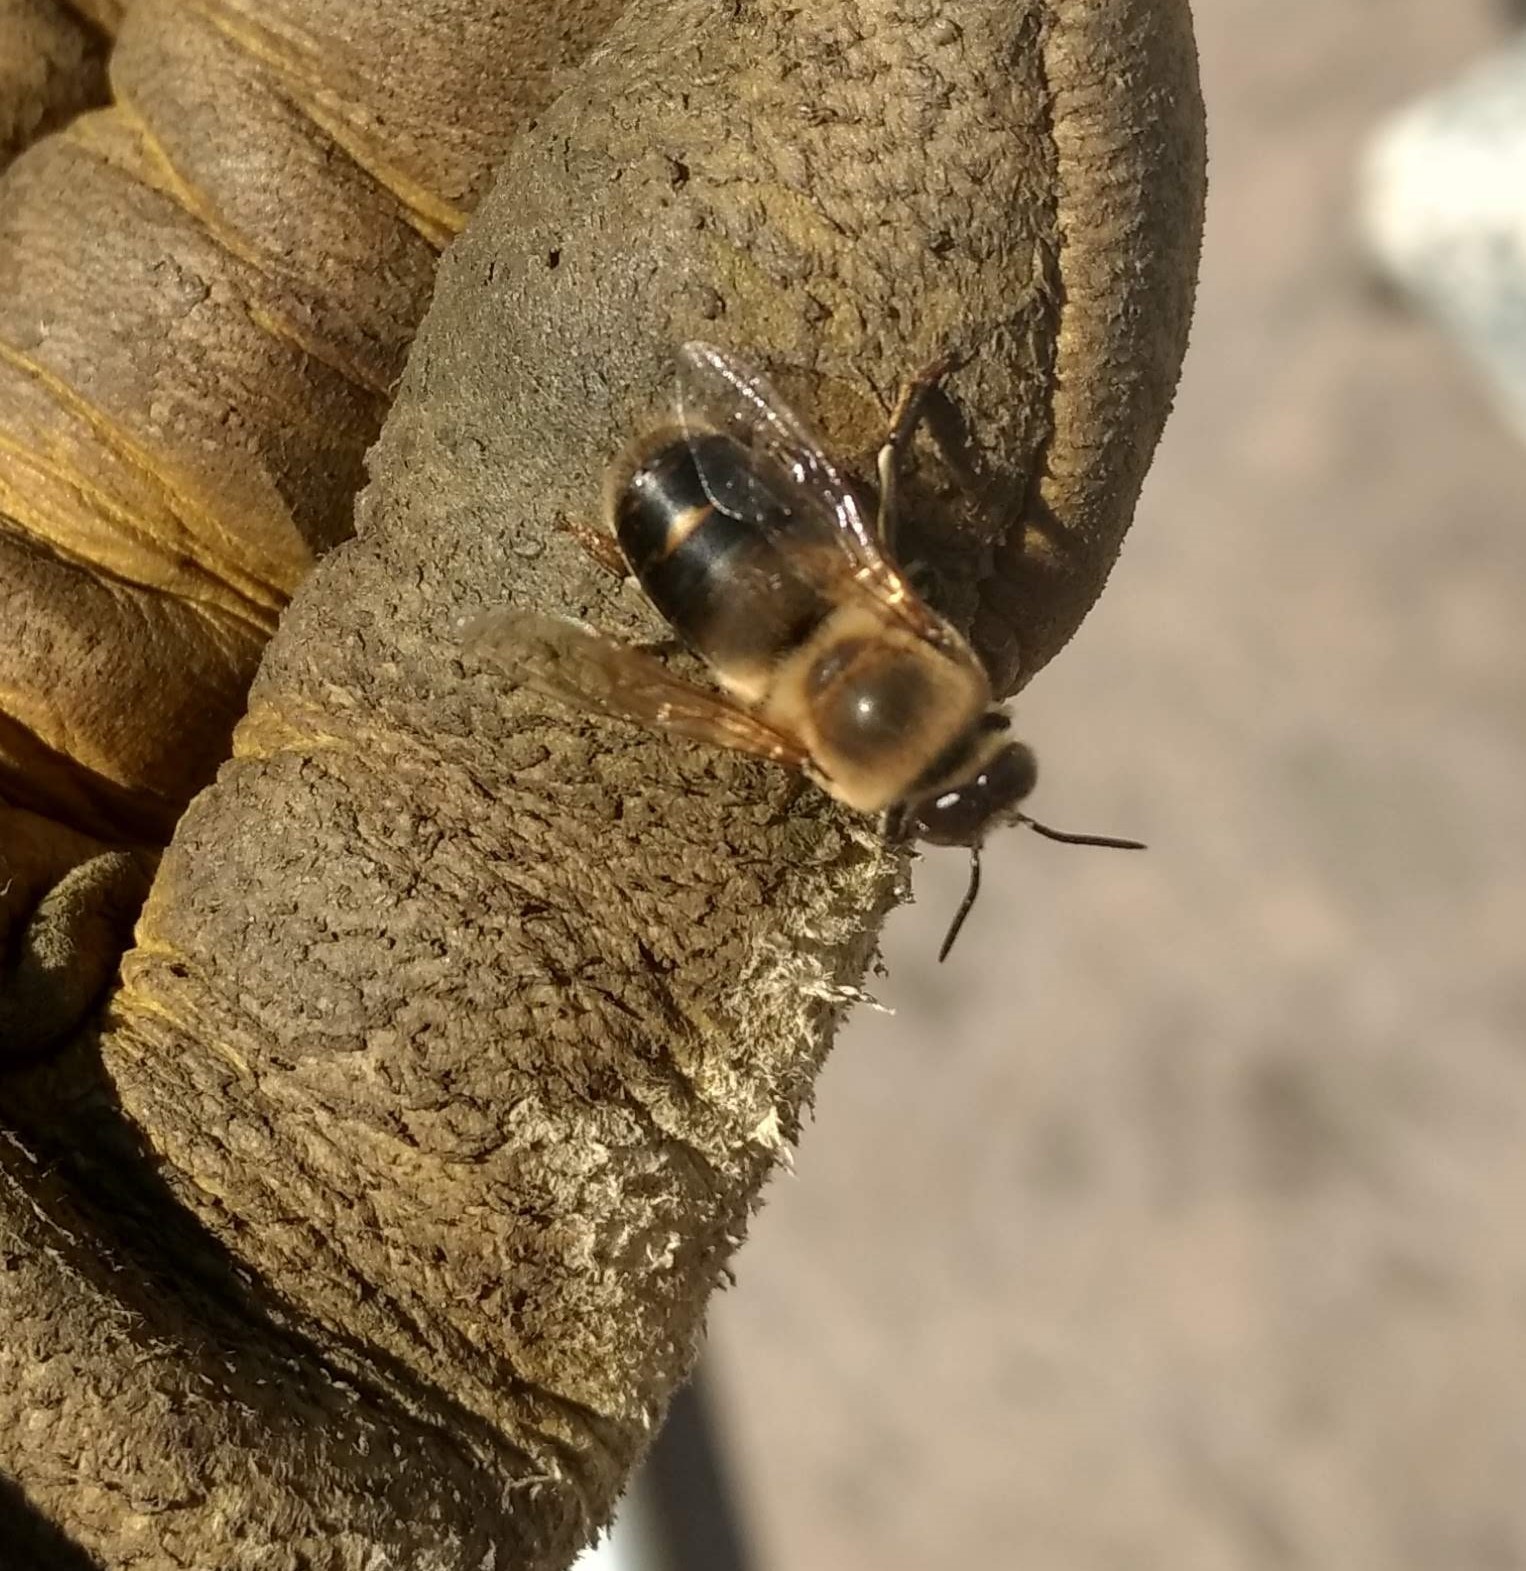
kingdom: Animalia
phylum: Arthropoda
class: Insecta
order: Hymenoptera
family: Apidae
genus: Apis
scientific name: Apis mellifera
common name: Honey bee
